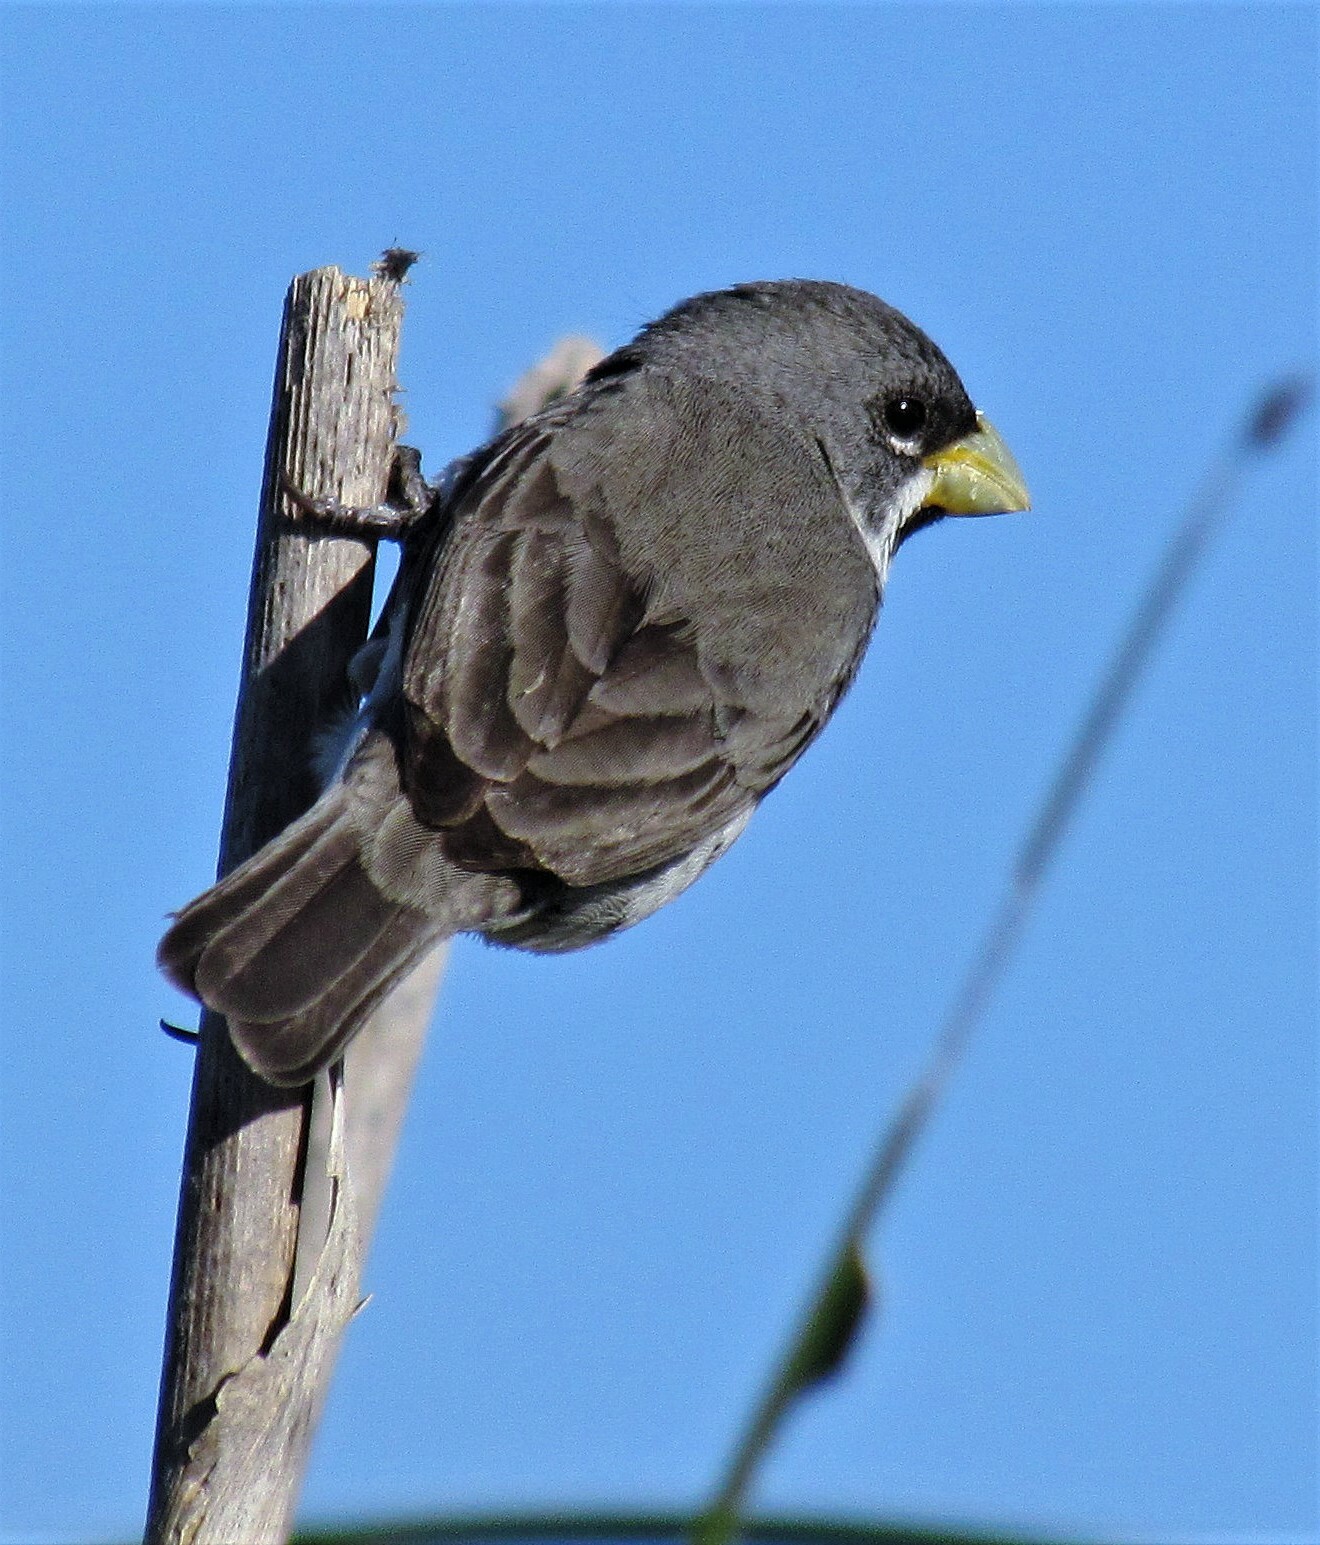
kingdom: Animalia
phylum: Chordata
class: Aves
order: Passeriformes
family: Thraupidae
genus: Sporophila
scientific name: Sporophila caerulescens
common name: Double-collared seedeater
